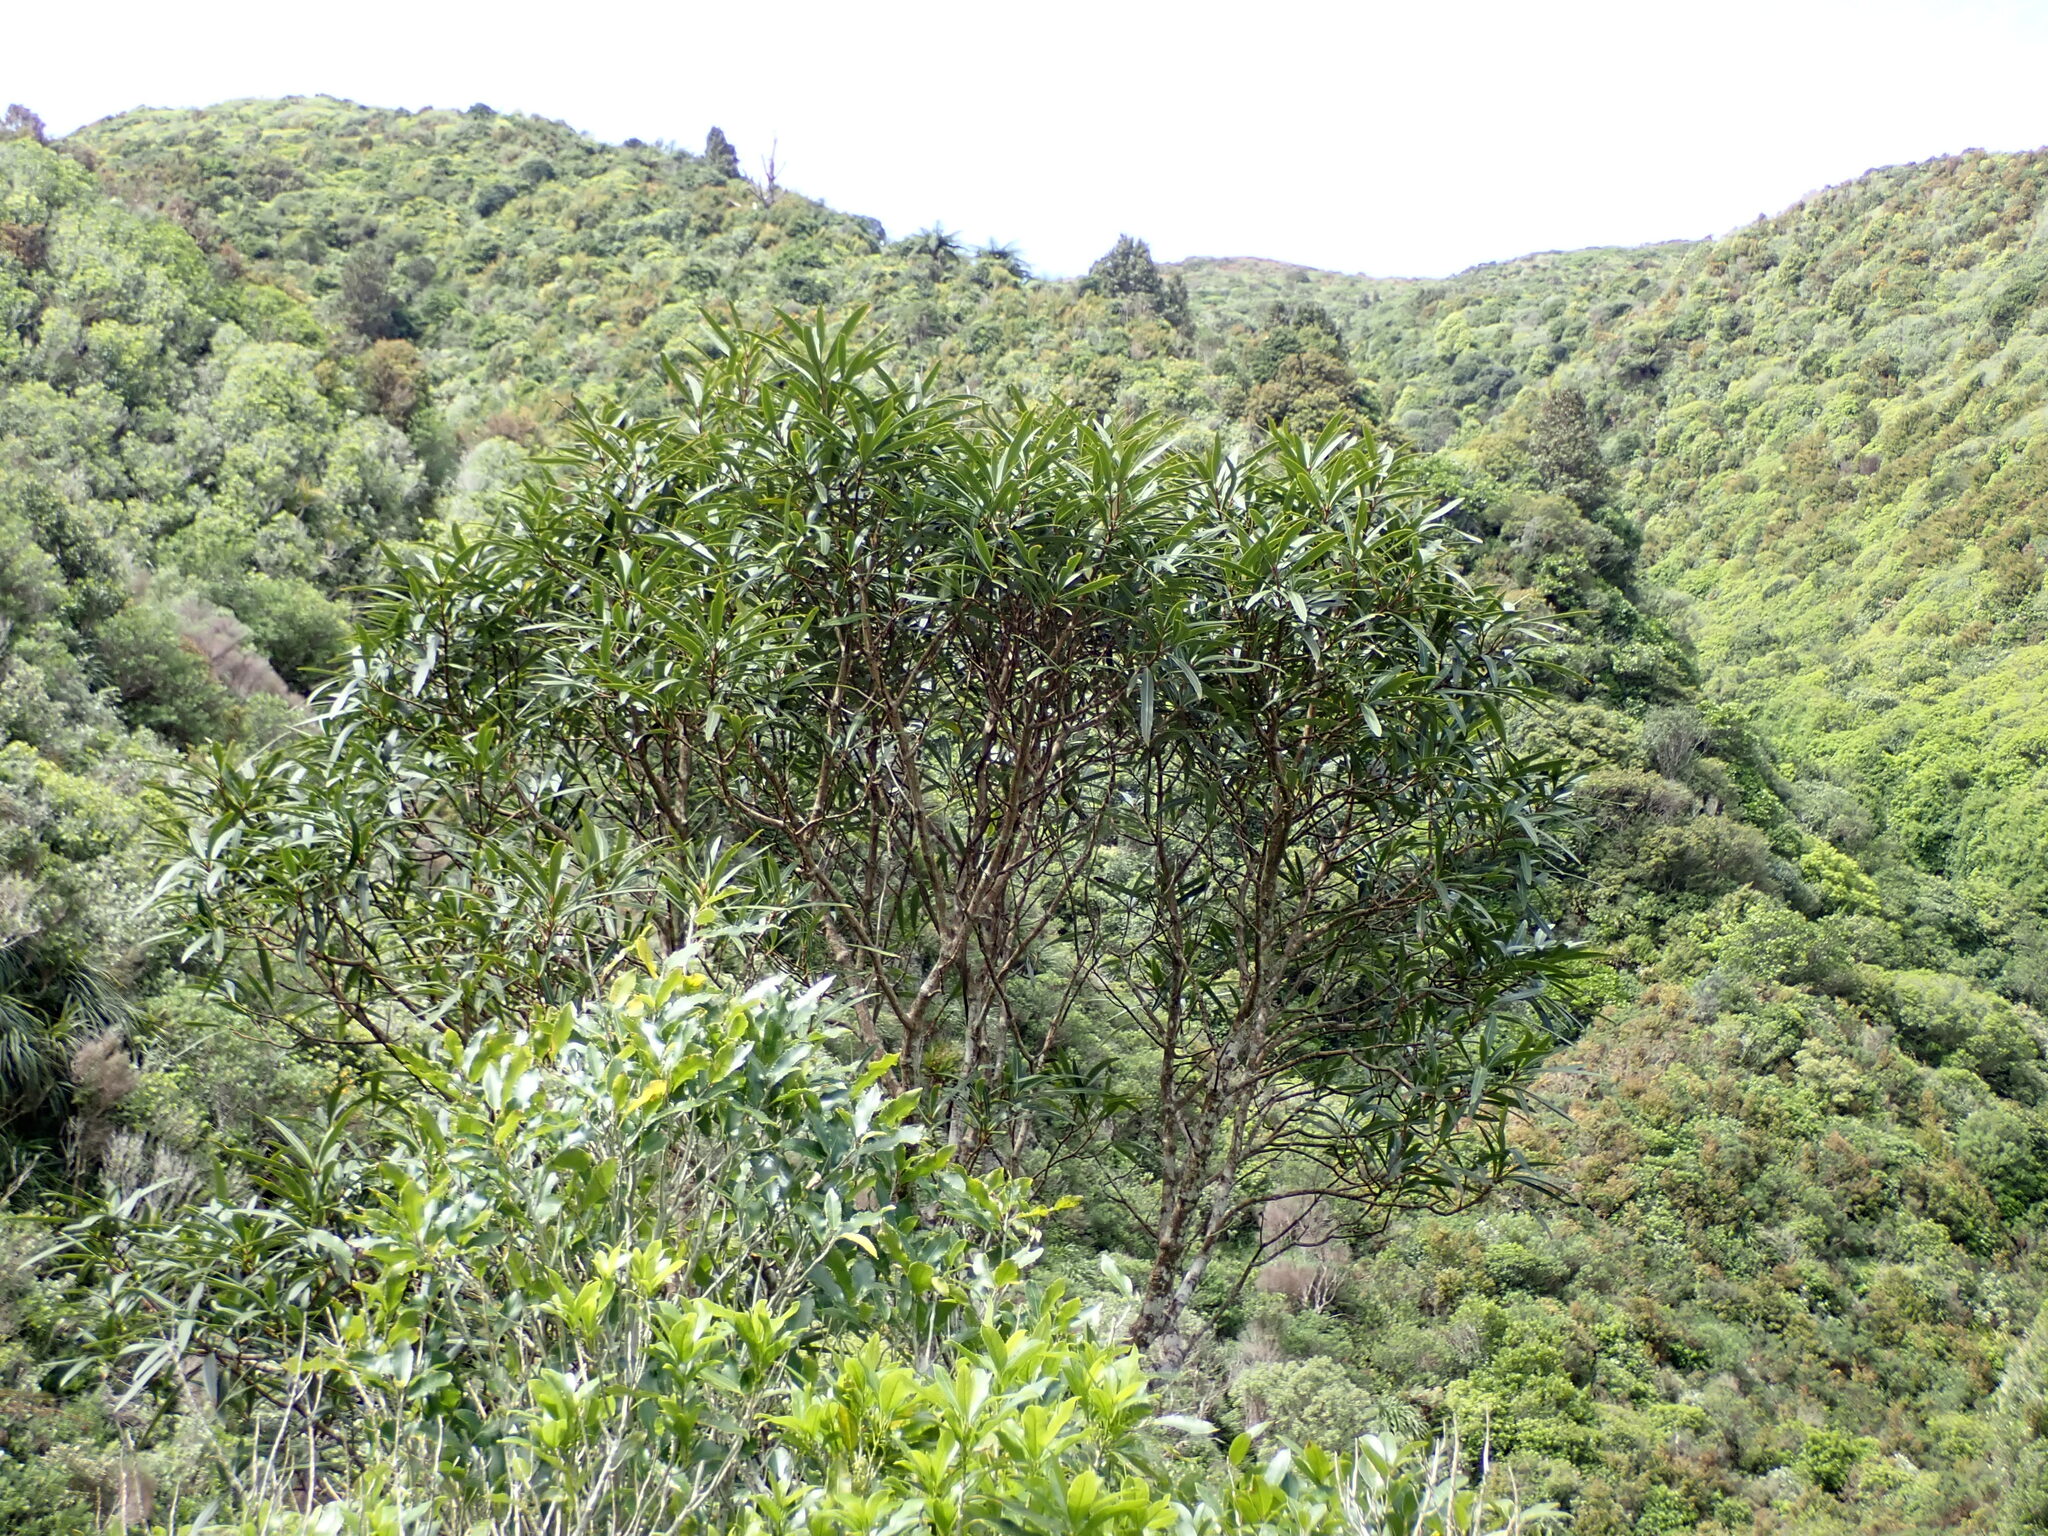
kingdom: Plantae
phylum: Tracheophyta
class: Magnoliopsida
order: Apiales
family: Araliaceae
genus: Pseudopanax
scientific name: Pseudopanax crassifolius
